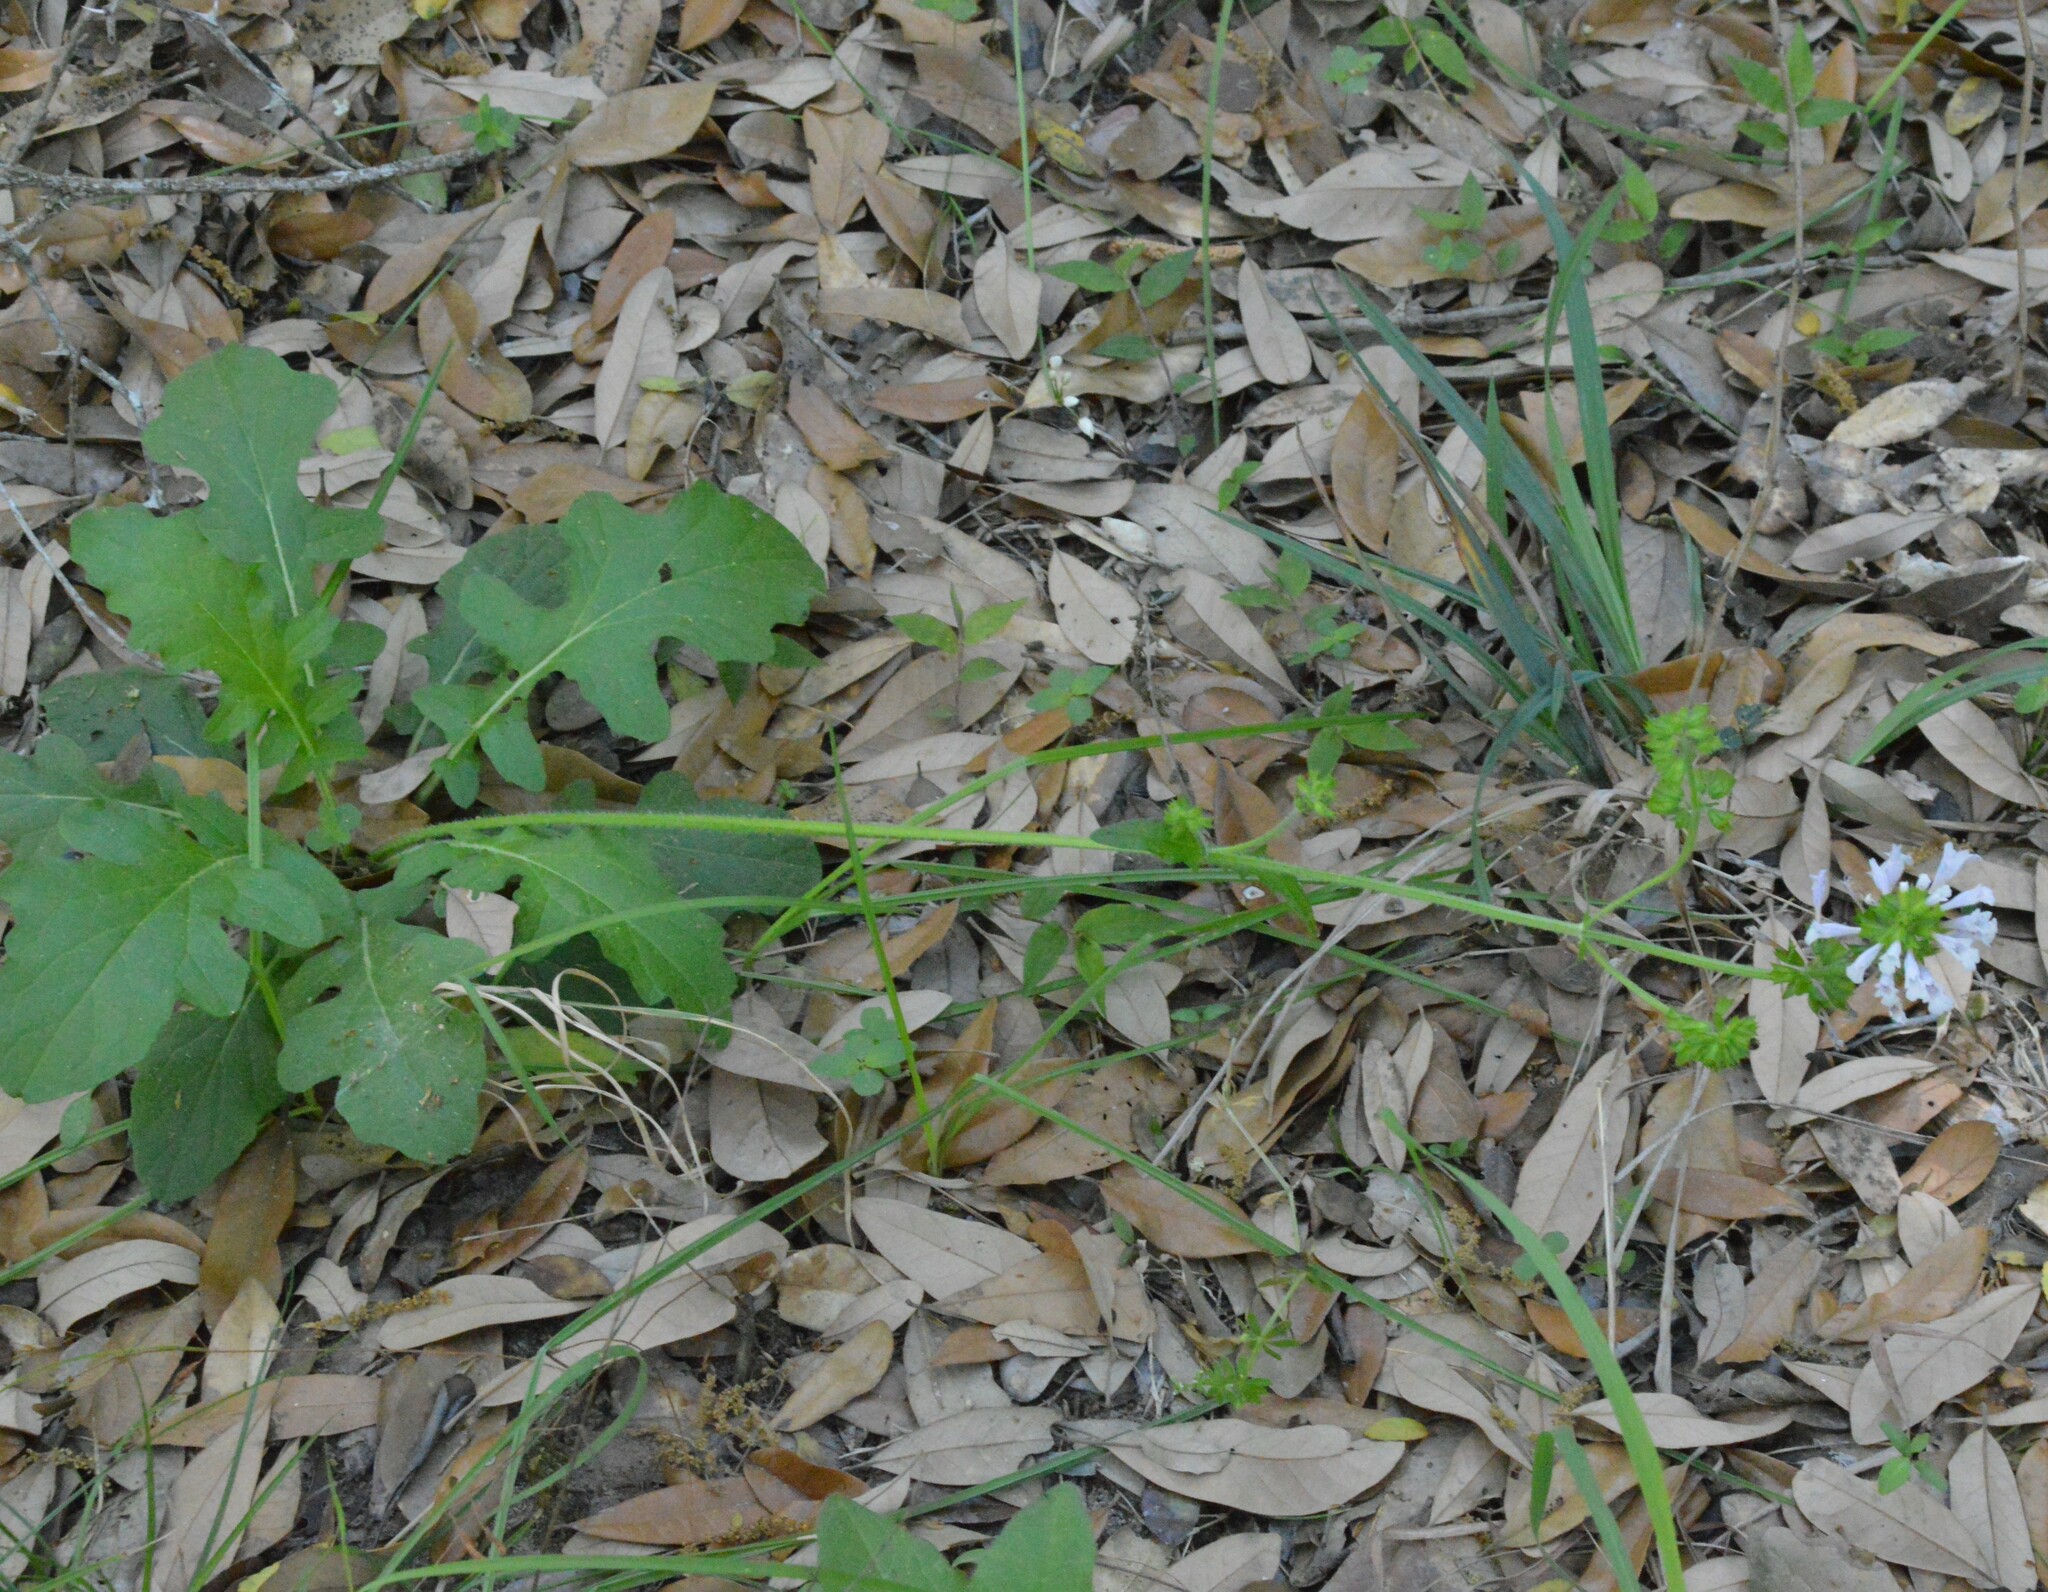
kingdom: Plantae
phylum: Tracheophyta
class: Magnoliopsida
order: Lamiales
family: Lamiaceae
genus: Salvia
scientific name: Salvia lyrata
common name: Cancerweed
